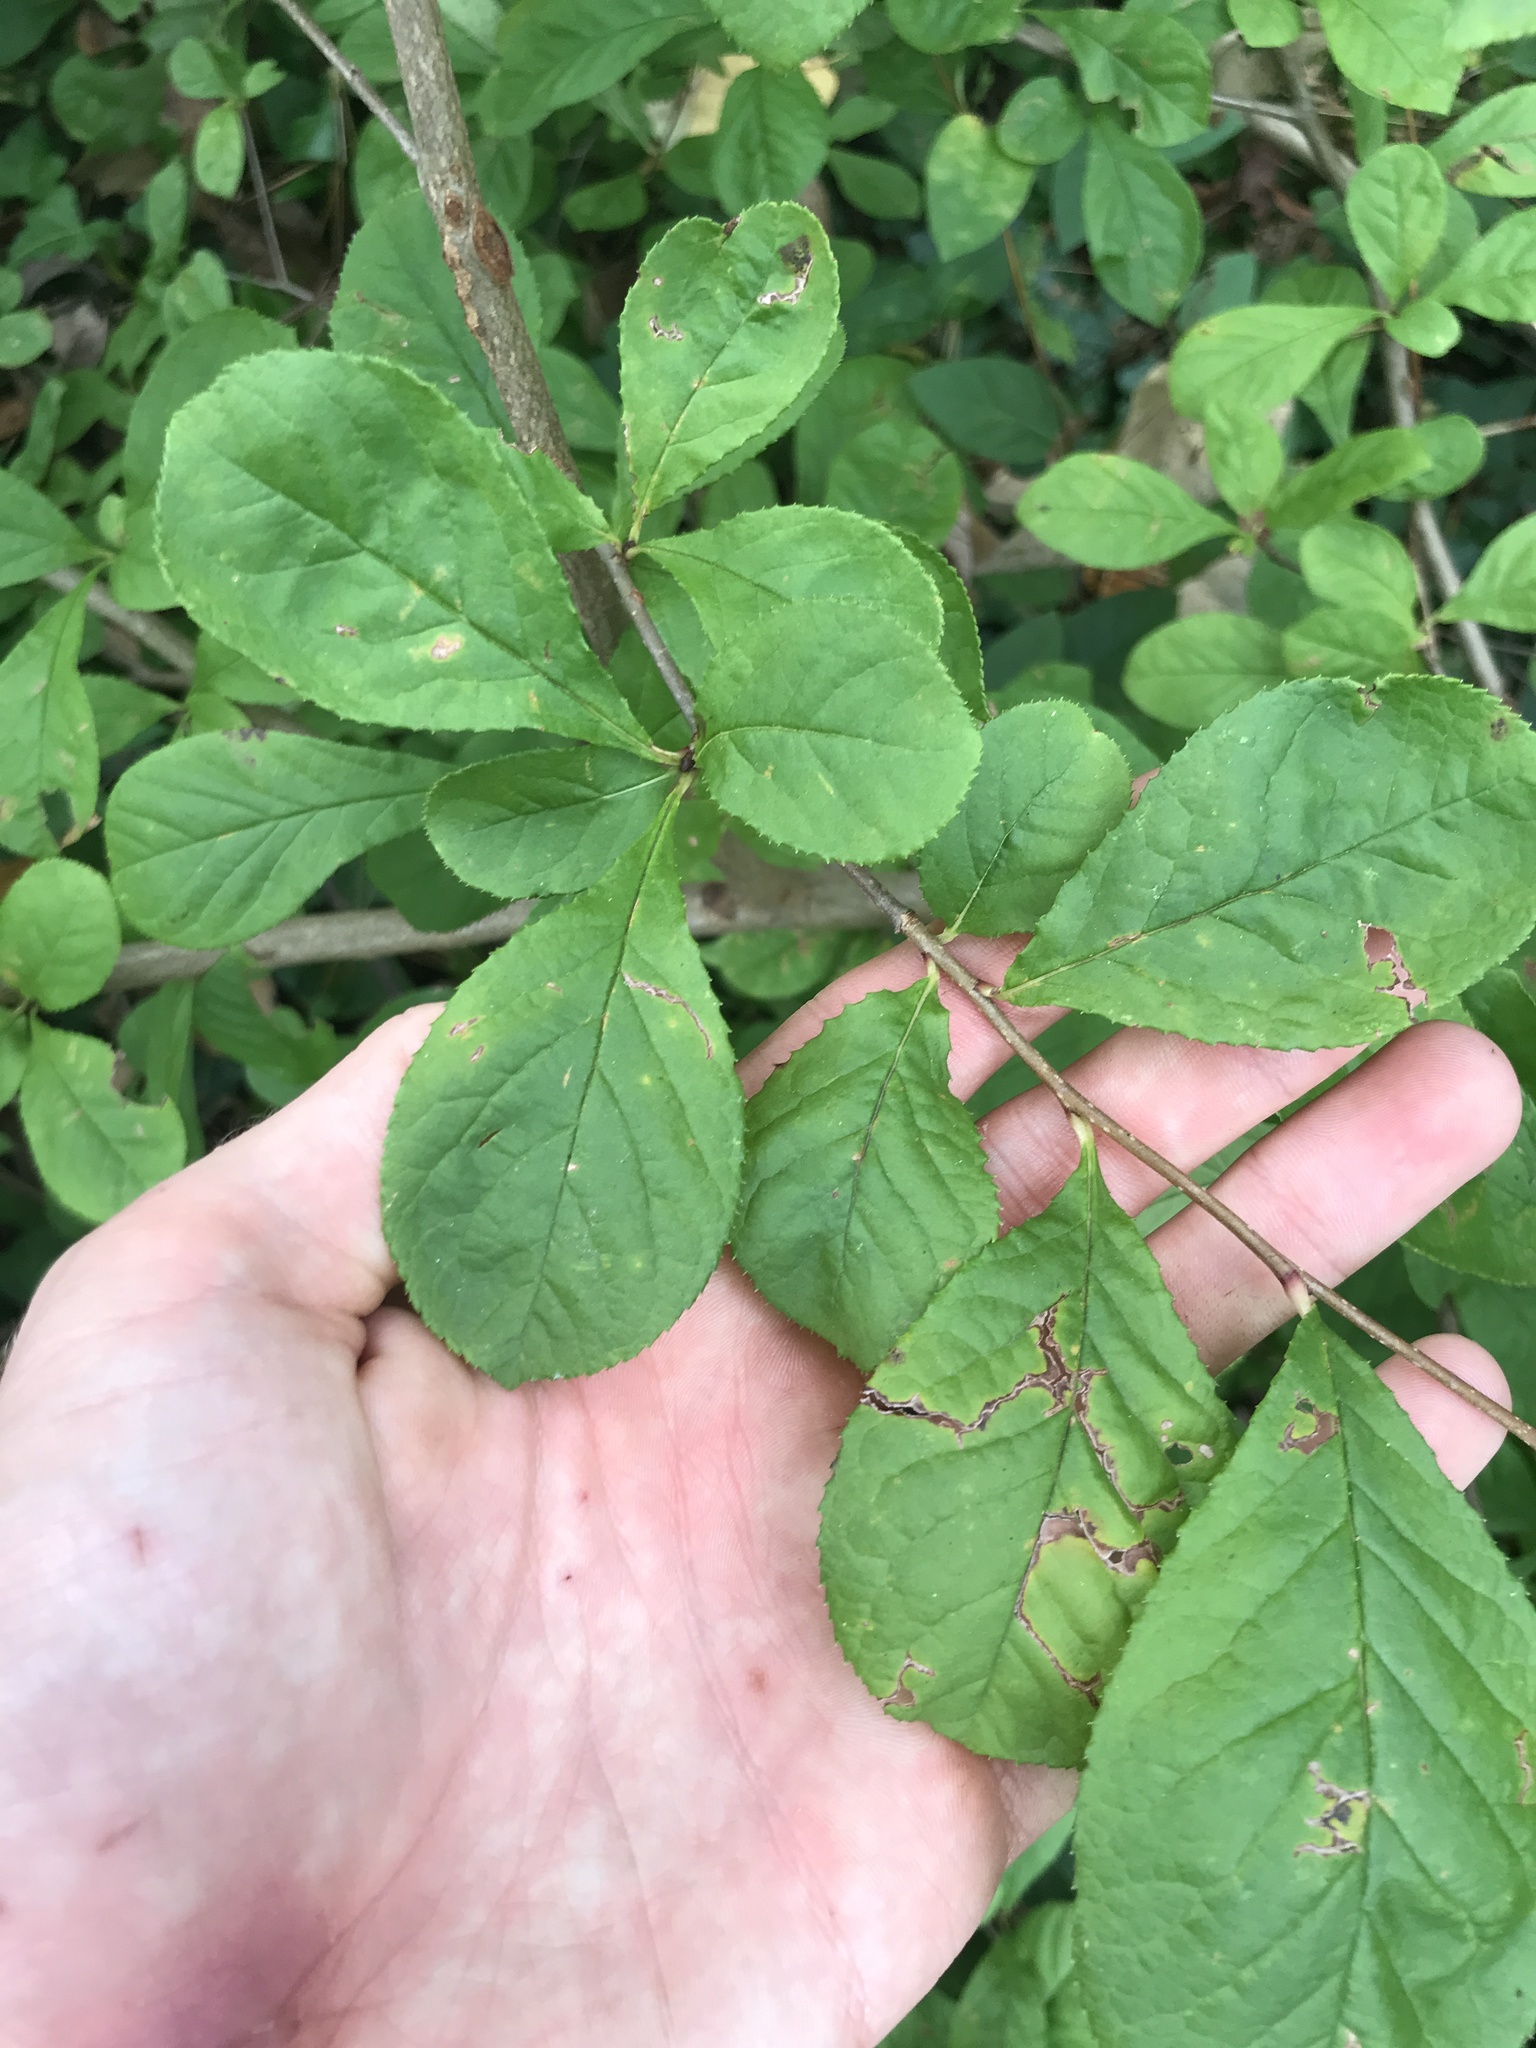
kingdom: Plantae
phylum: Tracheophyta
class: Magnoliopsida
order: Rosales
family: Rosaceae
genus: Pourthiaea
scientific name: Pourthiaea villosa
